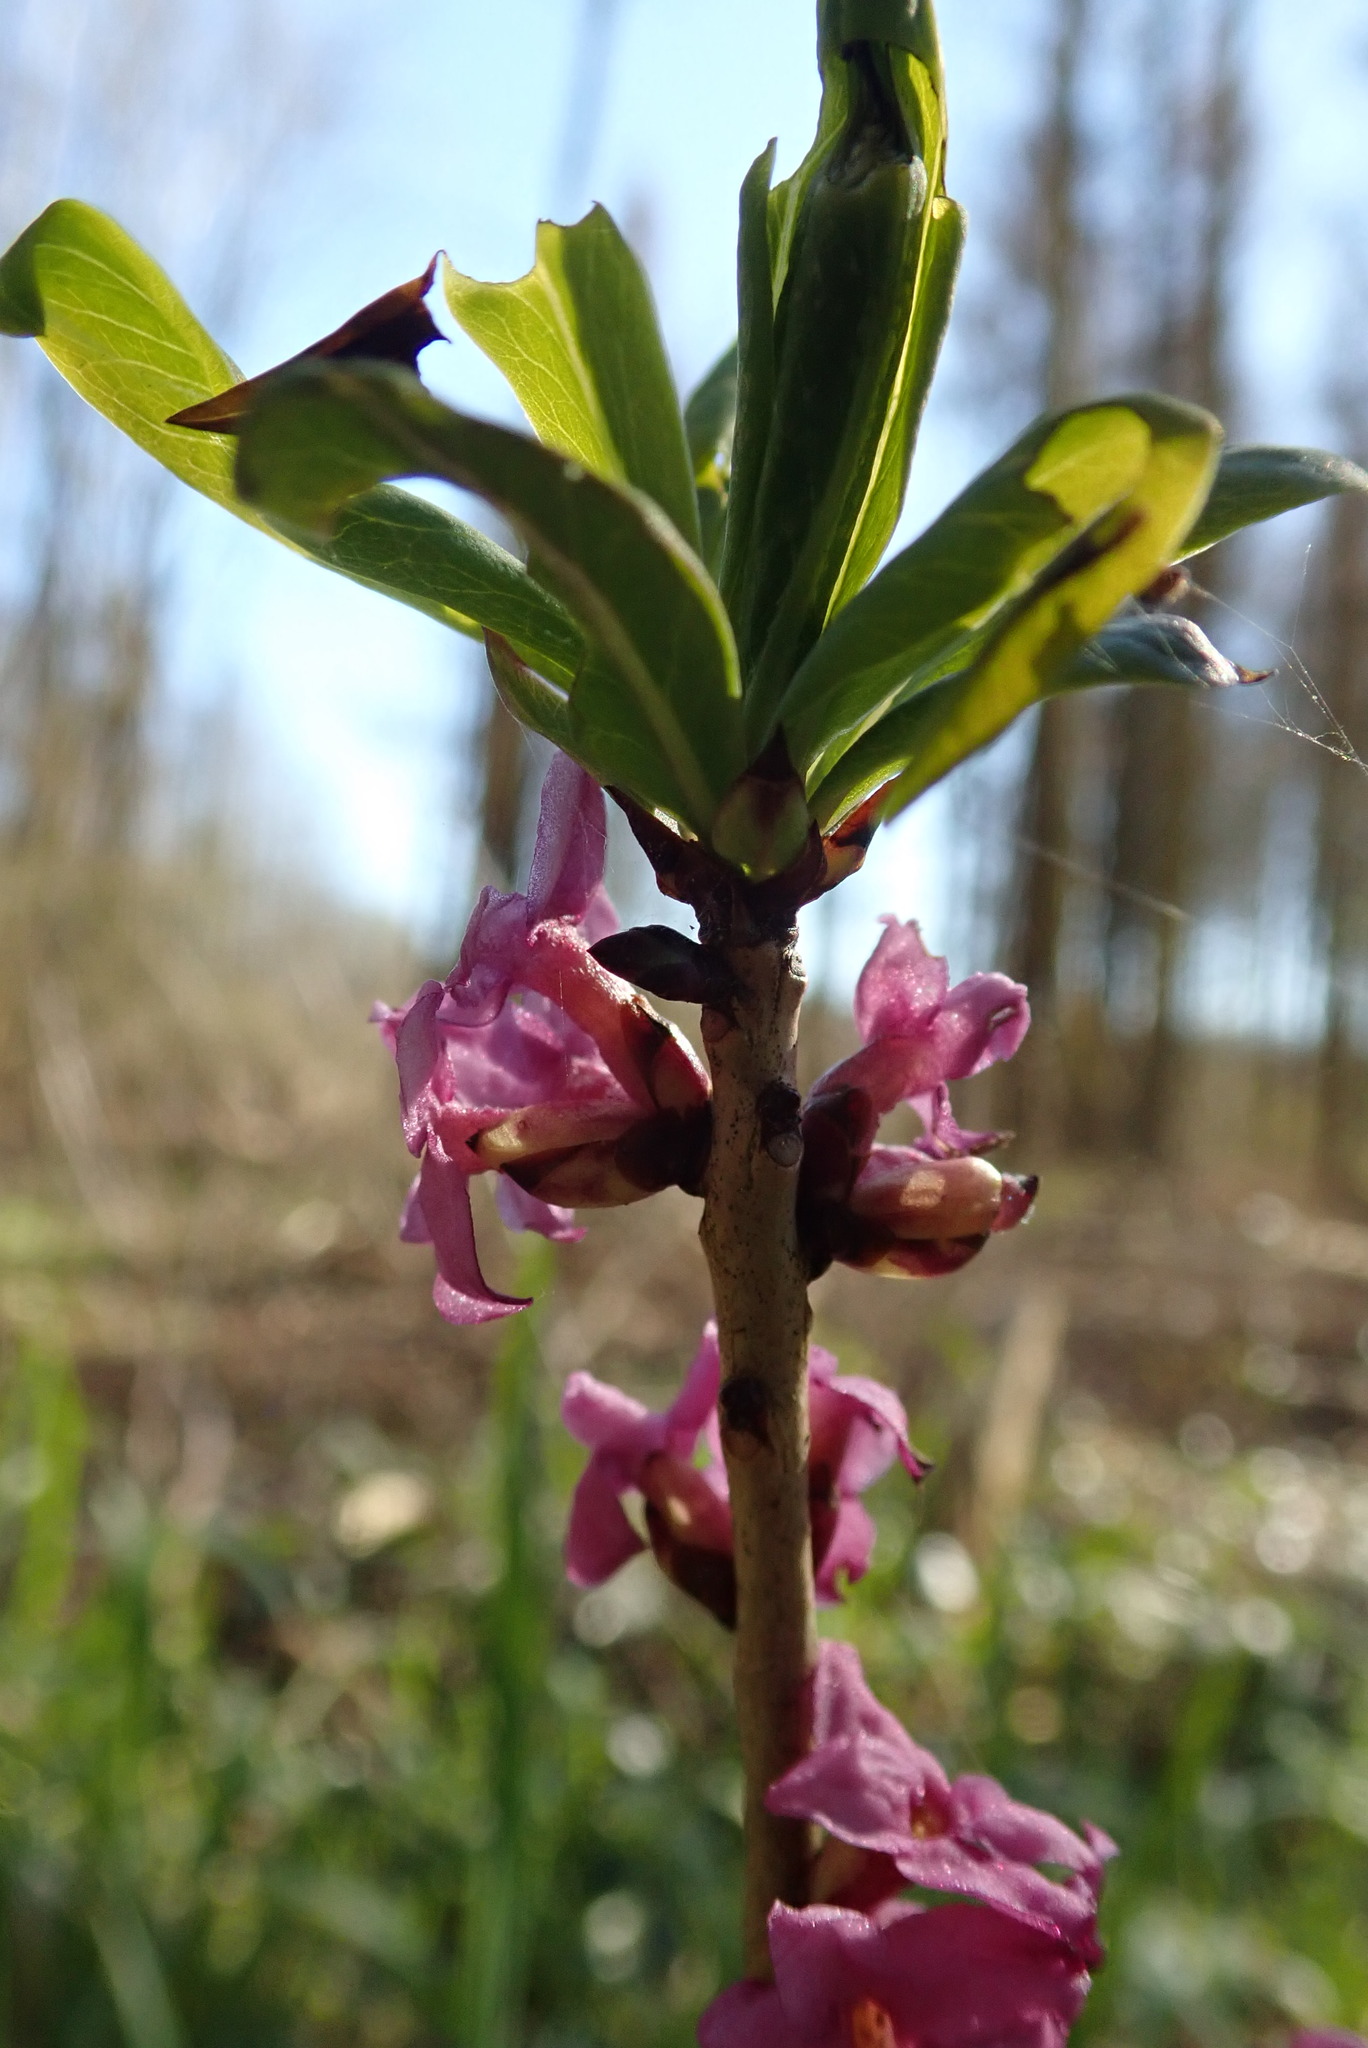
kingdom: Plantae
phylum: Tracheophyta
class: Magnoliopsida
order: Malvales
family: Thymelaeaceae
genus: Daphne
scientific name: Daphne mezereum
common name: Mezereon
